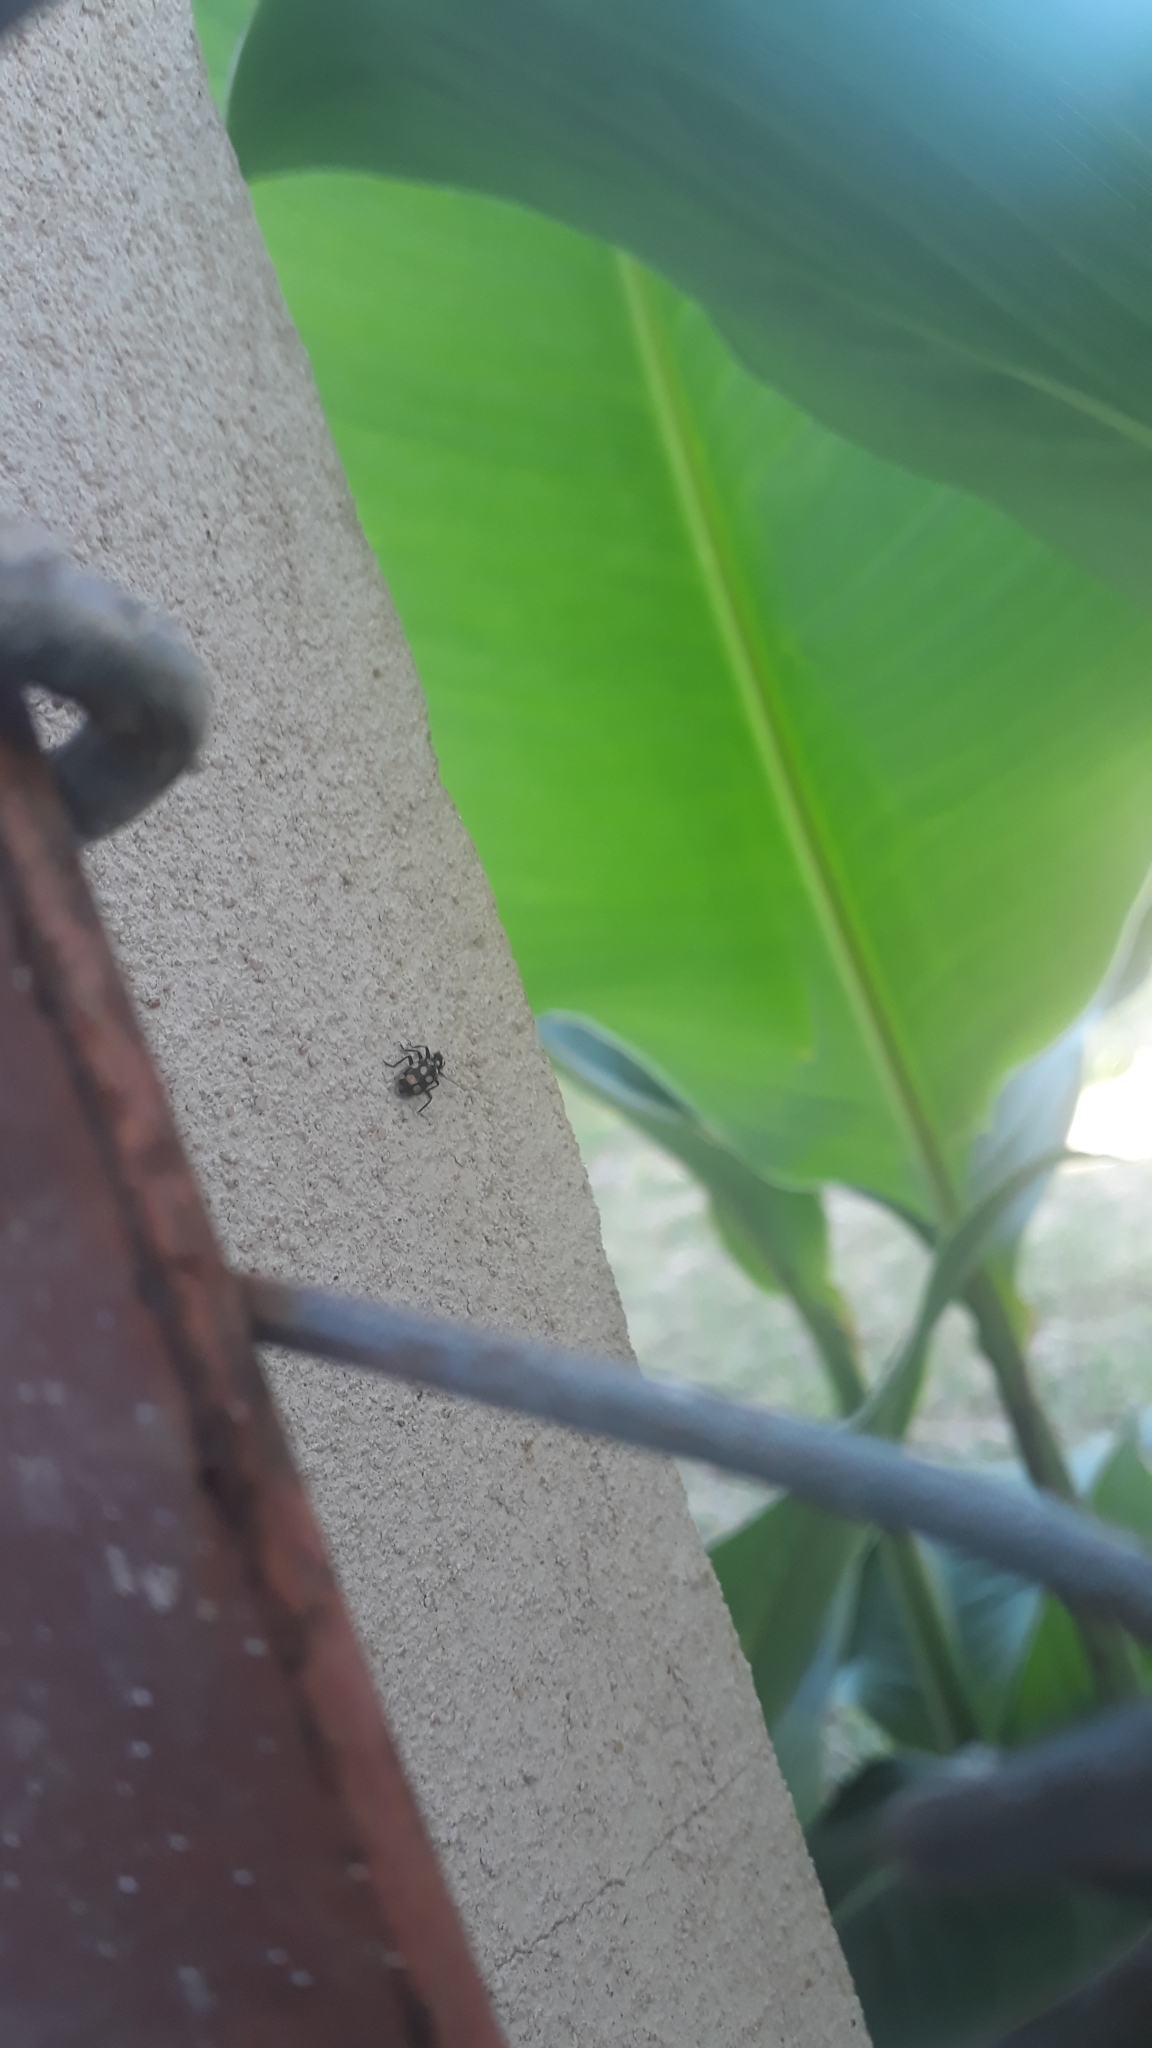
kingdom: Animalia
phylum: Arthropoda
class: Insecta
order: Coleoptera
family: Coccinellidae
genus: Eriopis
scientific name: Eriopis connexa
